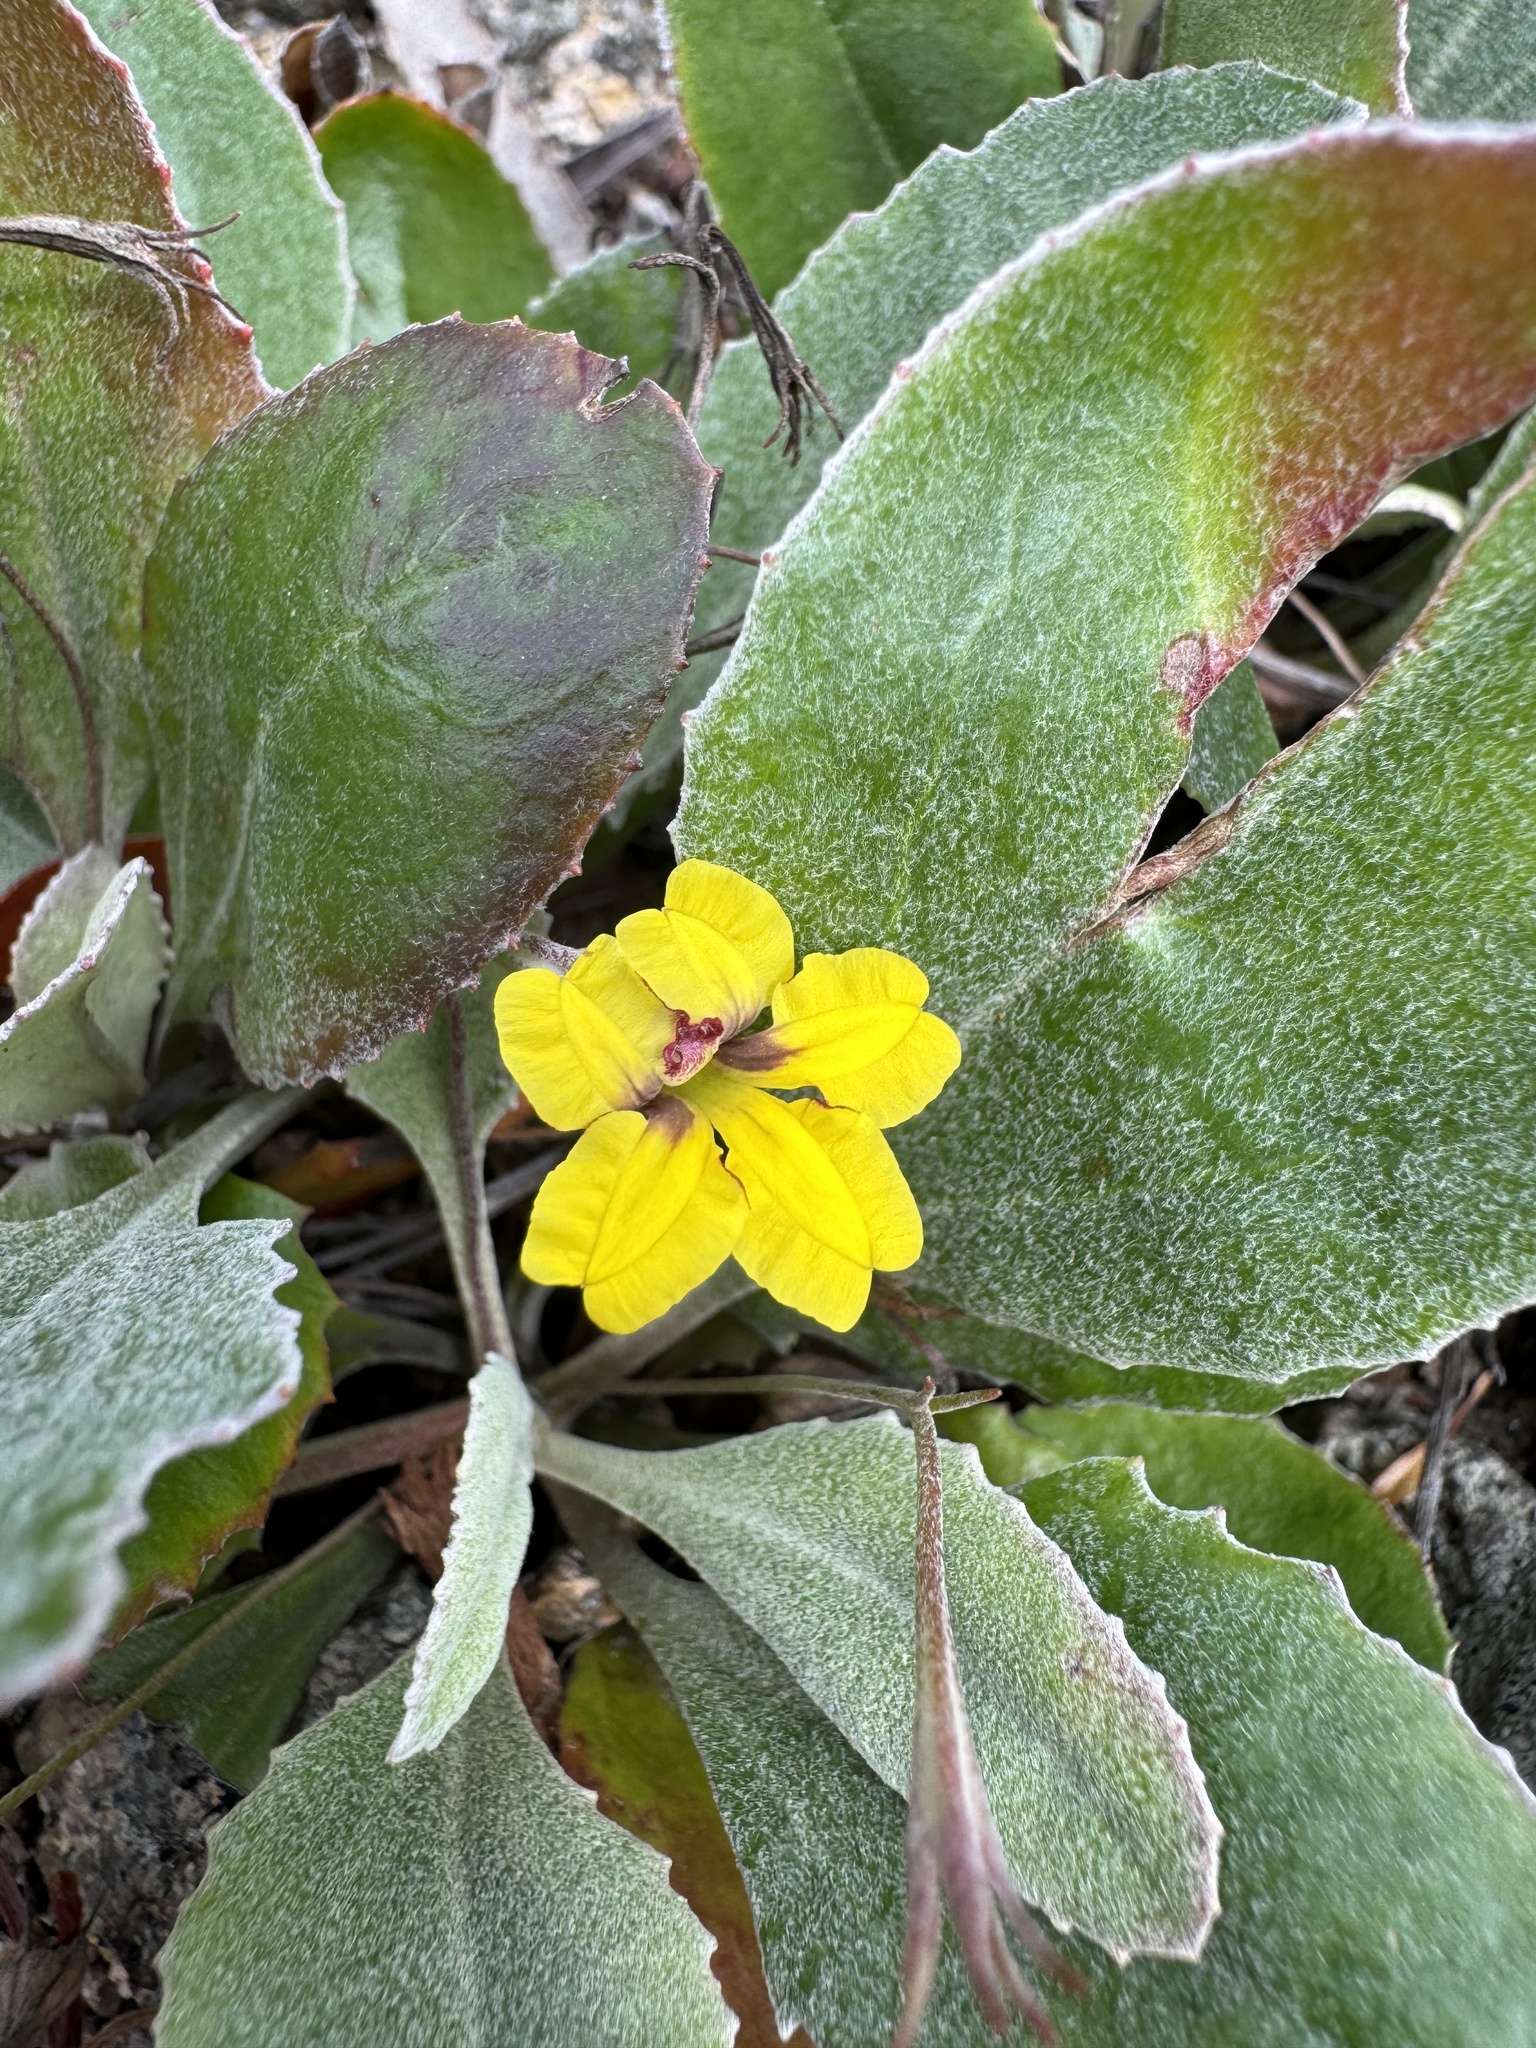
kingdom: Plantae
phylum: Tracheophyta
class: Magnoliopsida
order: Asterales
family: Goodeniaceae
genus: Goodenia
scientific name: Goodenia mystrophylla
